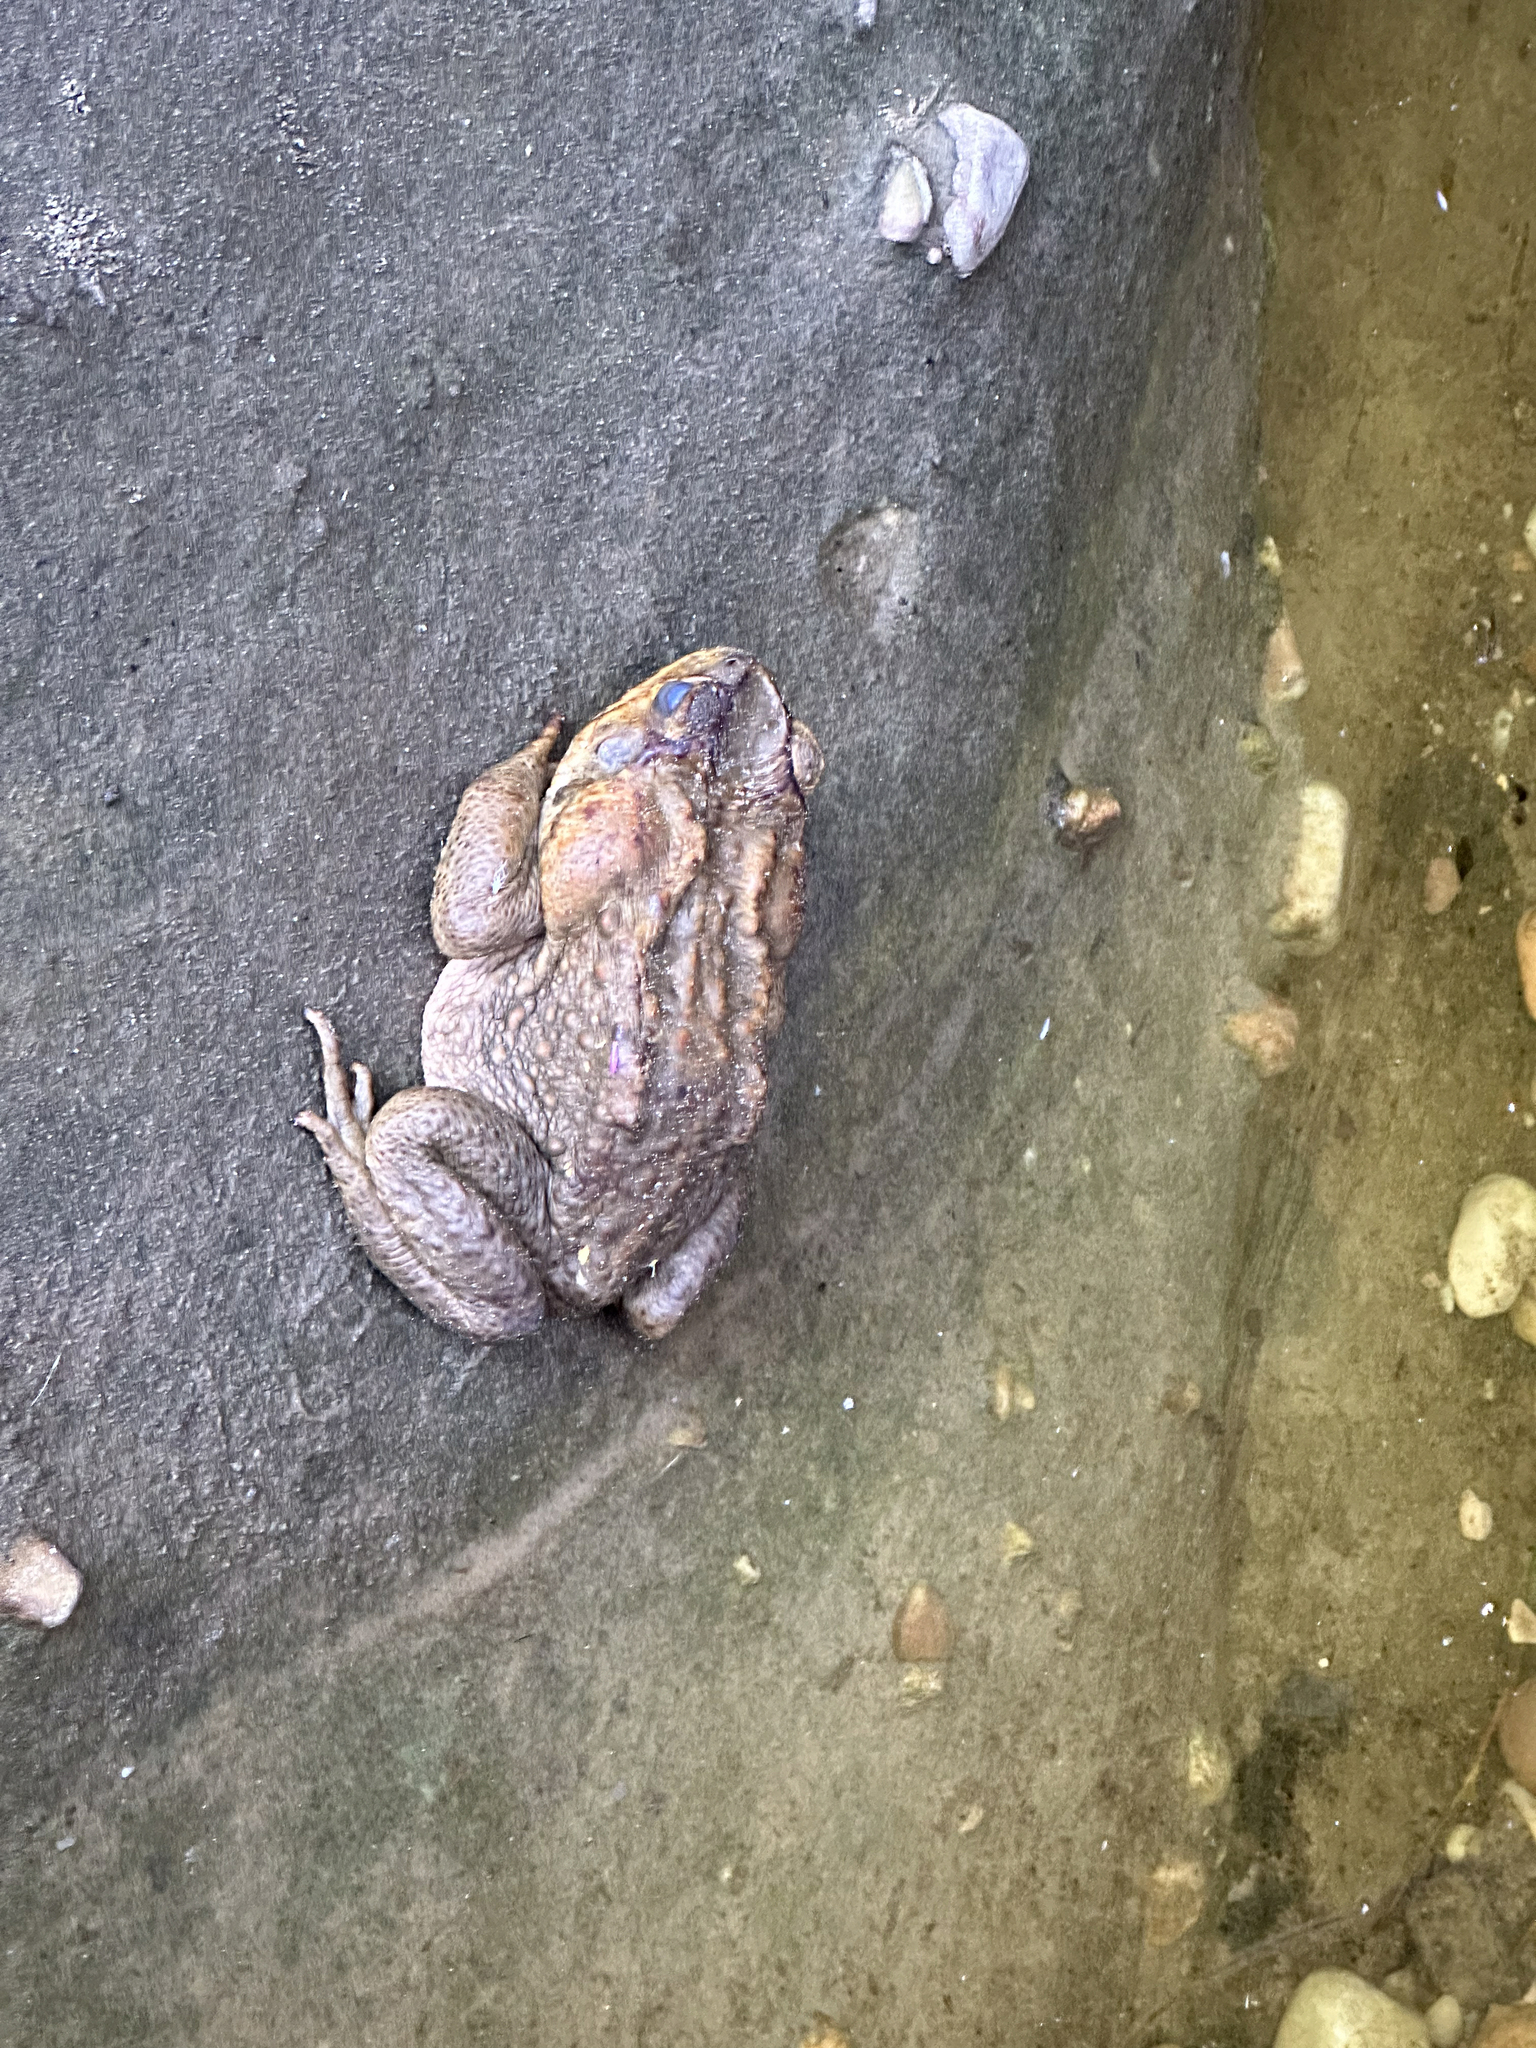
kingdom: Animalia
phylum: Chordata
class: Amphibia
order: Anura
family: Bufonidae
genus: Rhinella
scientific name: Rhinella marina
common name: Cane toad
